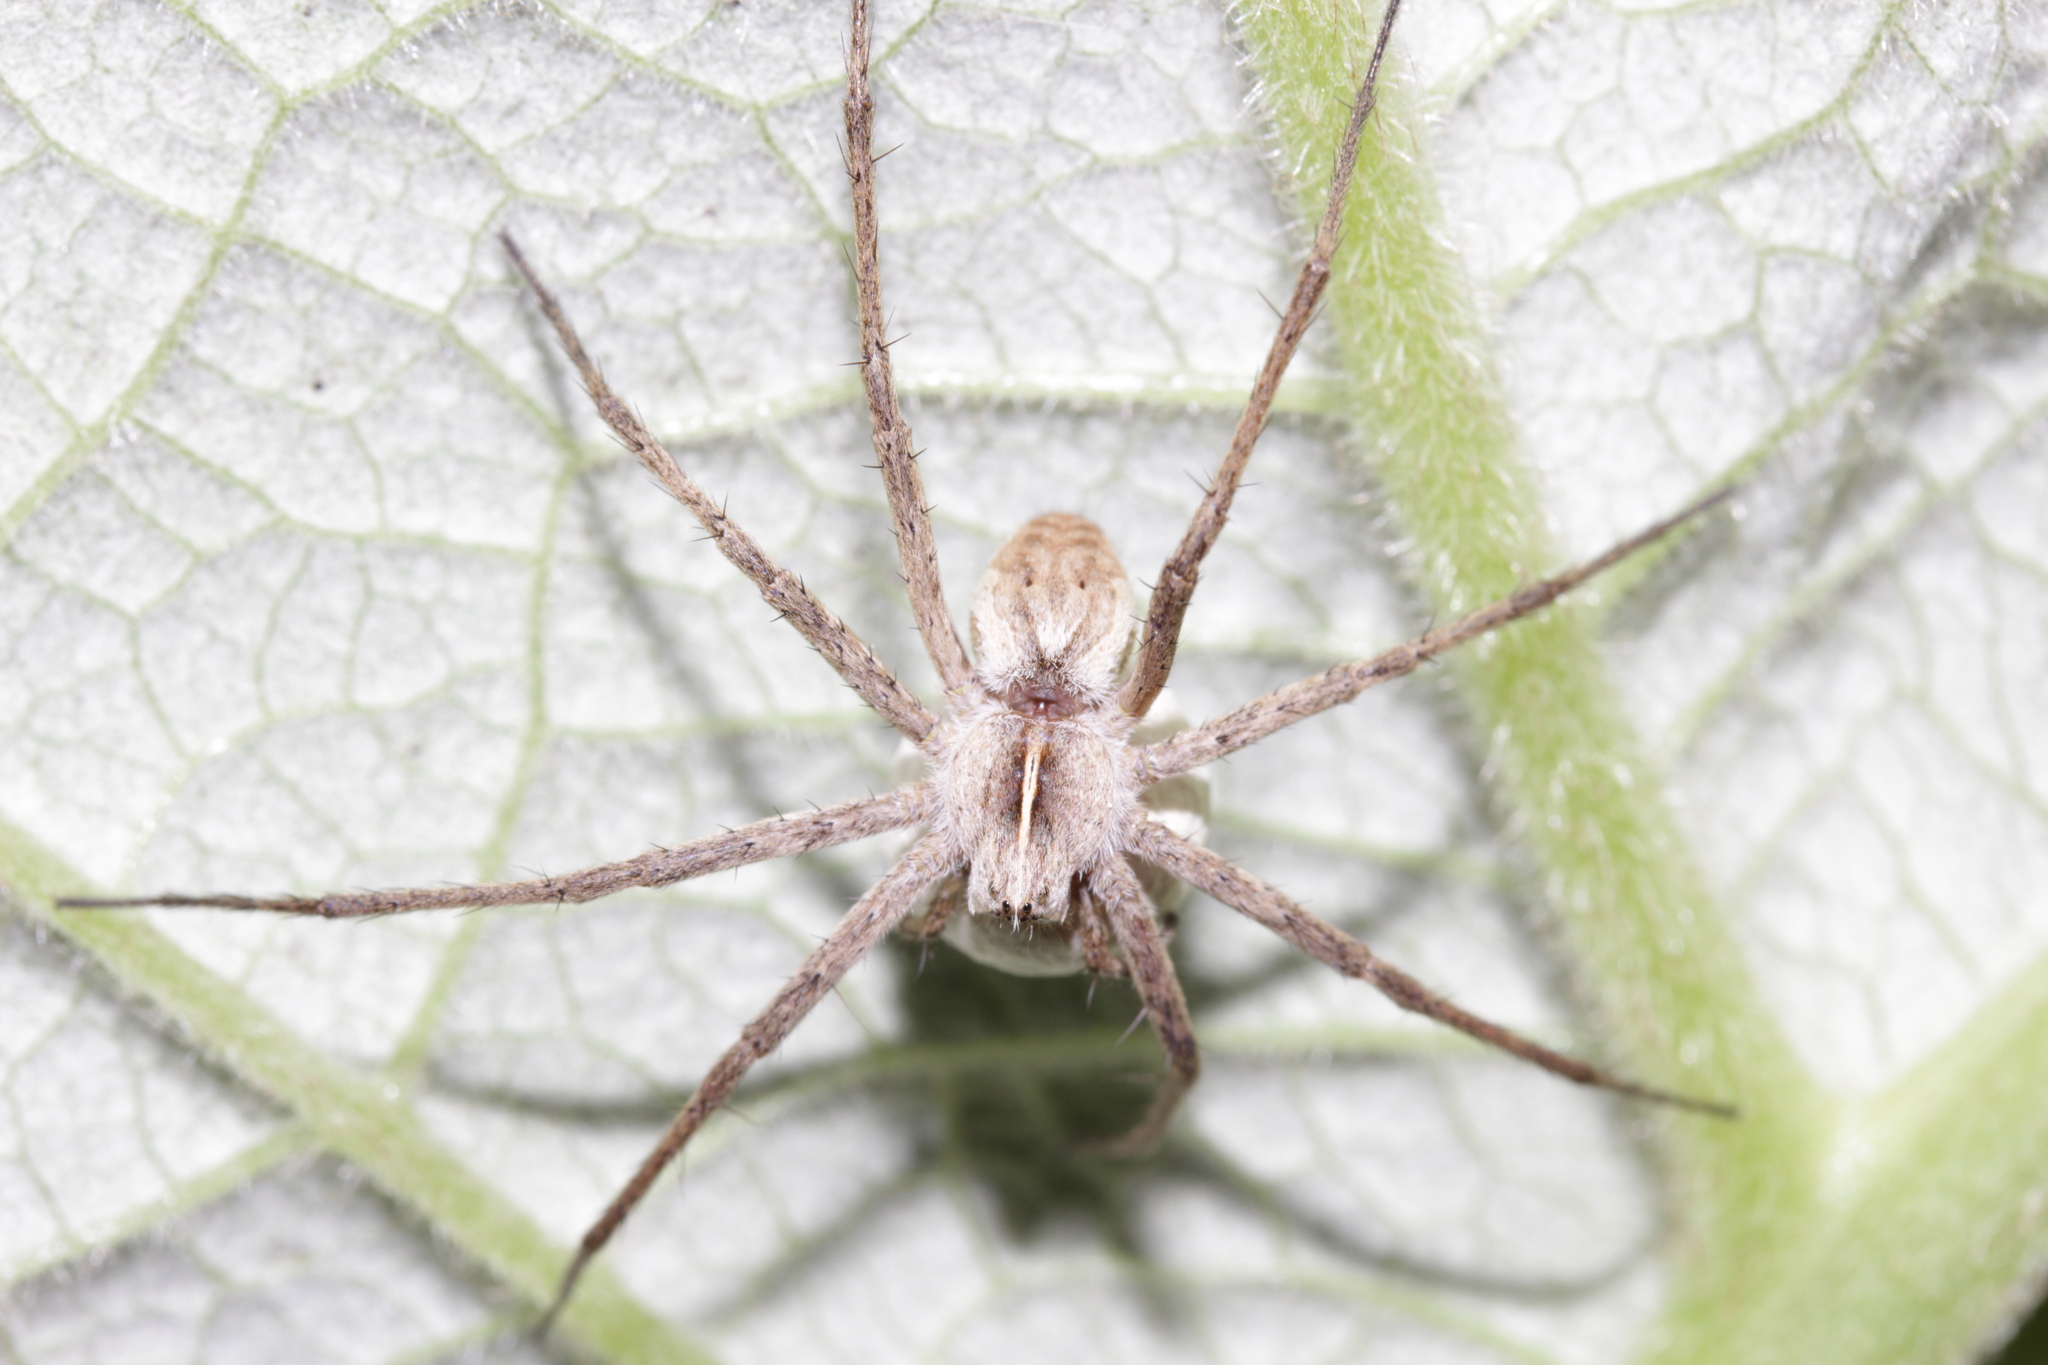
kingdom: Animalia
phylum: Arthropoda
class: Arachnida
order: Araneae
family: Pisauridae
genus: Pisaura
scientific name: Pisaura mirabilis
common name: Tent spider
